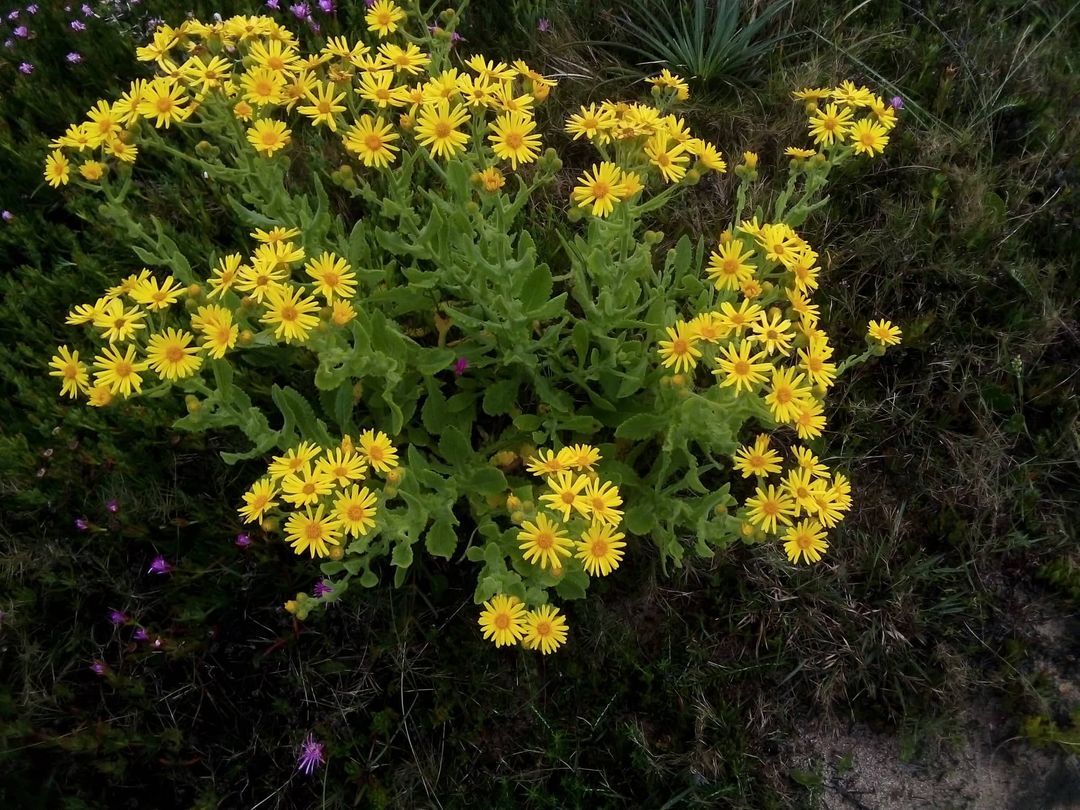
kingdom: Plantae
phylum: Tracheophyta
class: Magnoliopsida
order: Asterales
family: Asteraceae
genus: Senecio
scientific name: Senecio selloi
